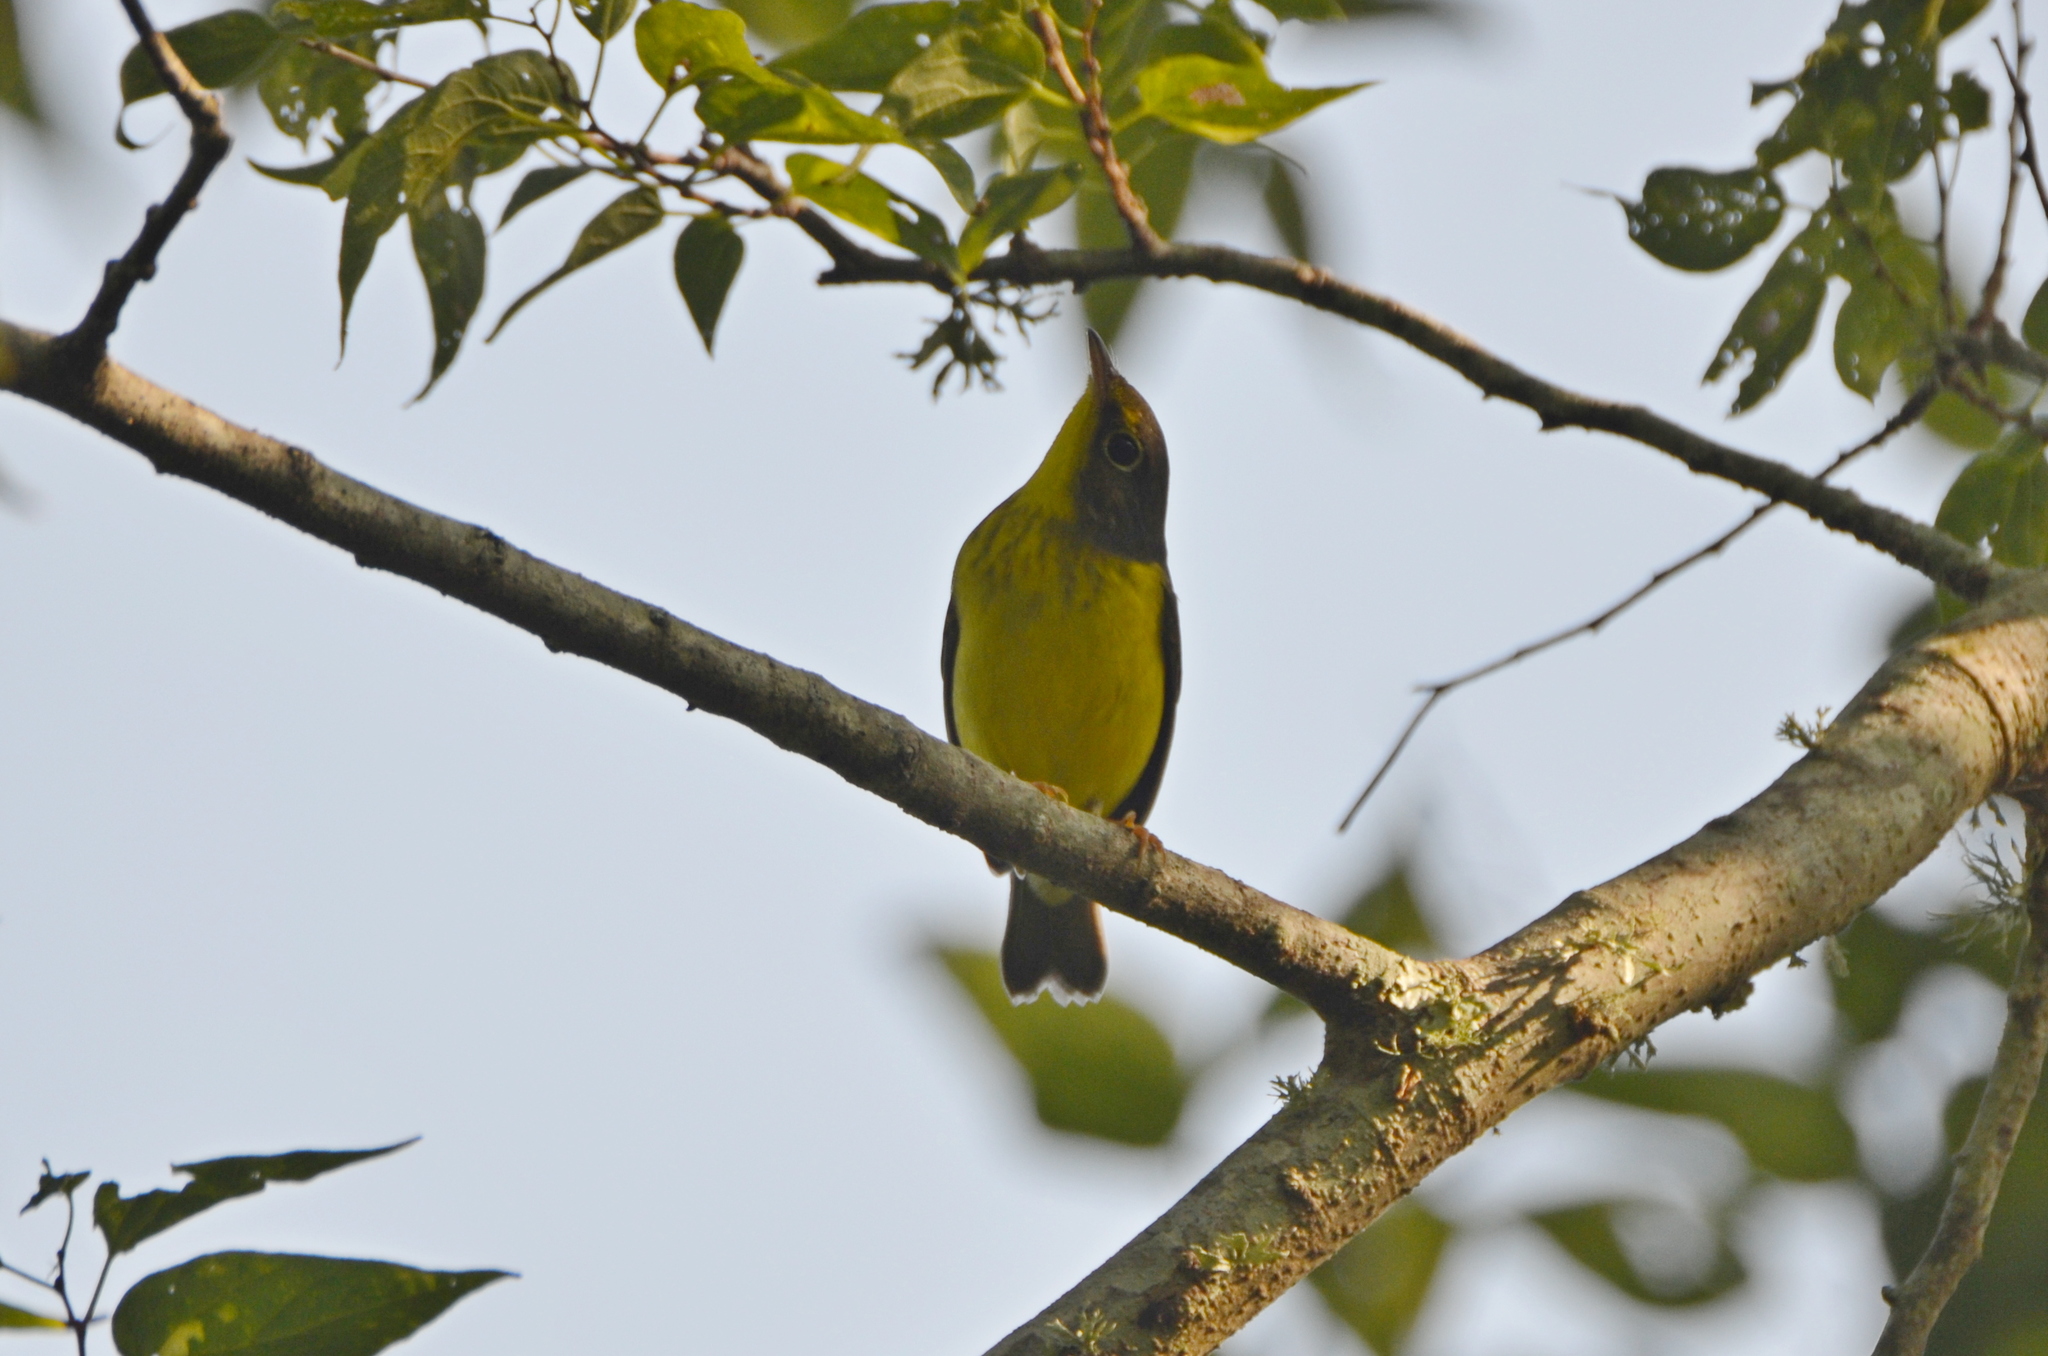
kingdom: Animalia
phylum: Chordata
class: Aves
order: Passeriformes
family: Parulidae
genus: Cardellina
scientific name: Cardellina canadensis
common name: Canada warbler
